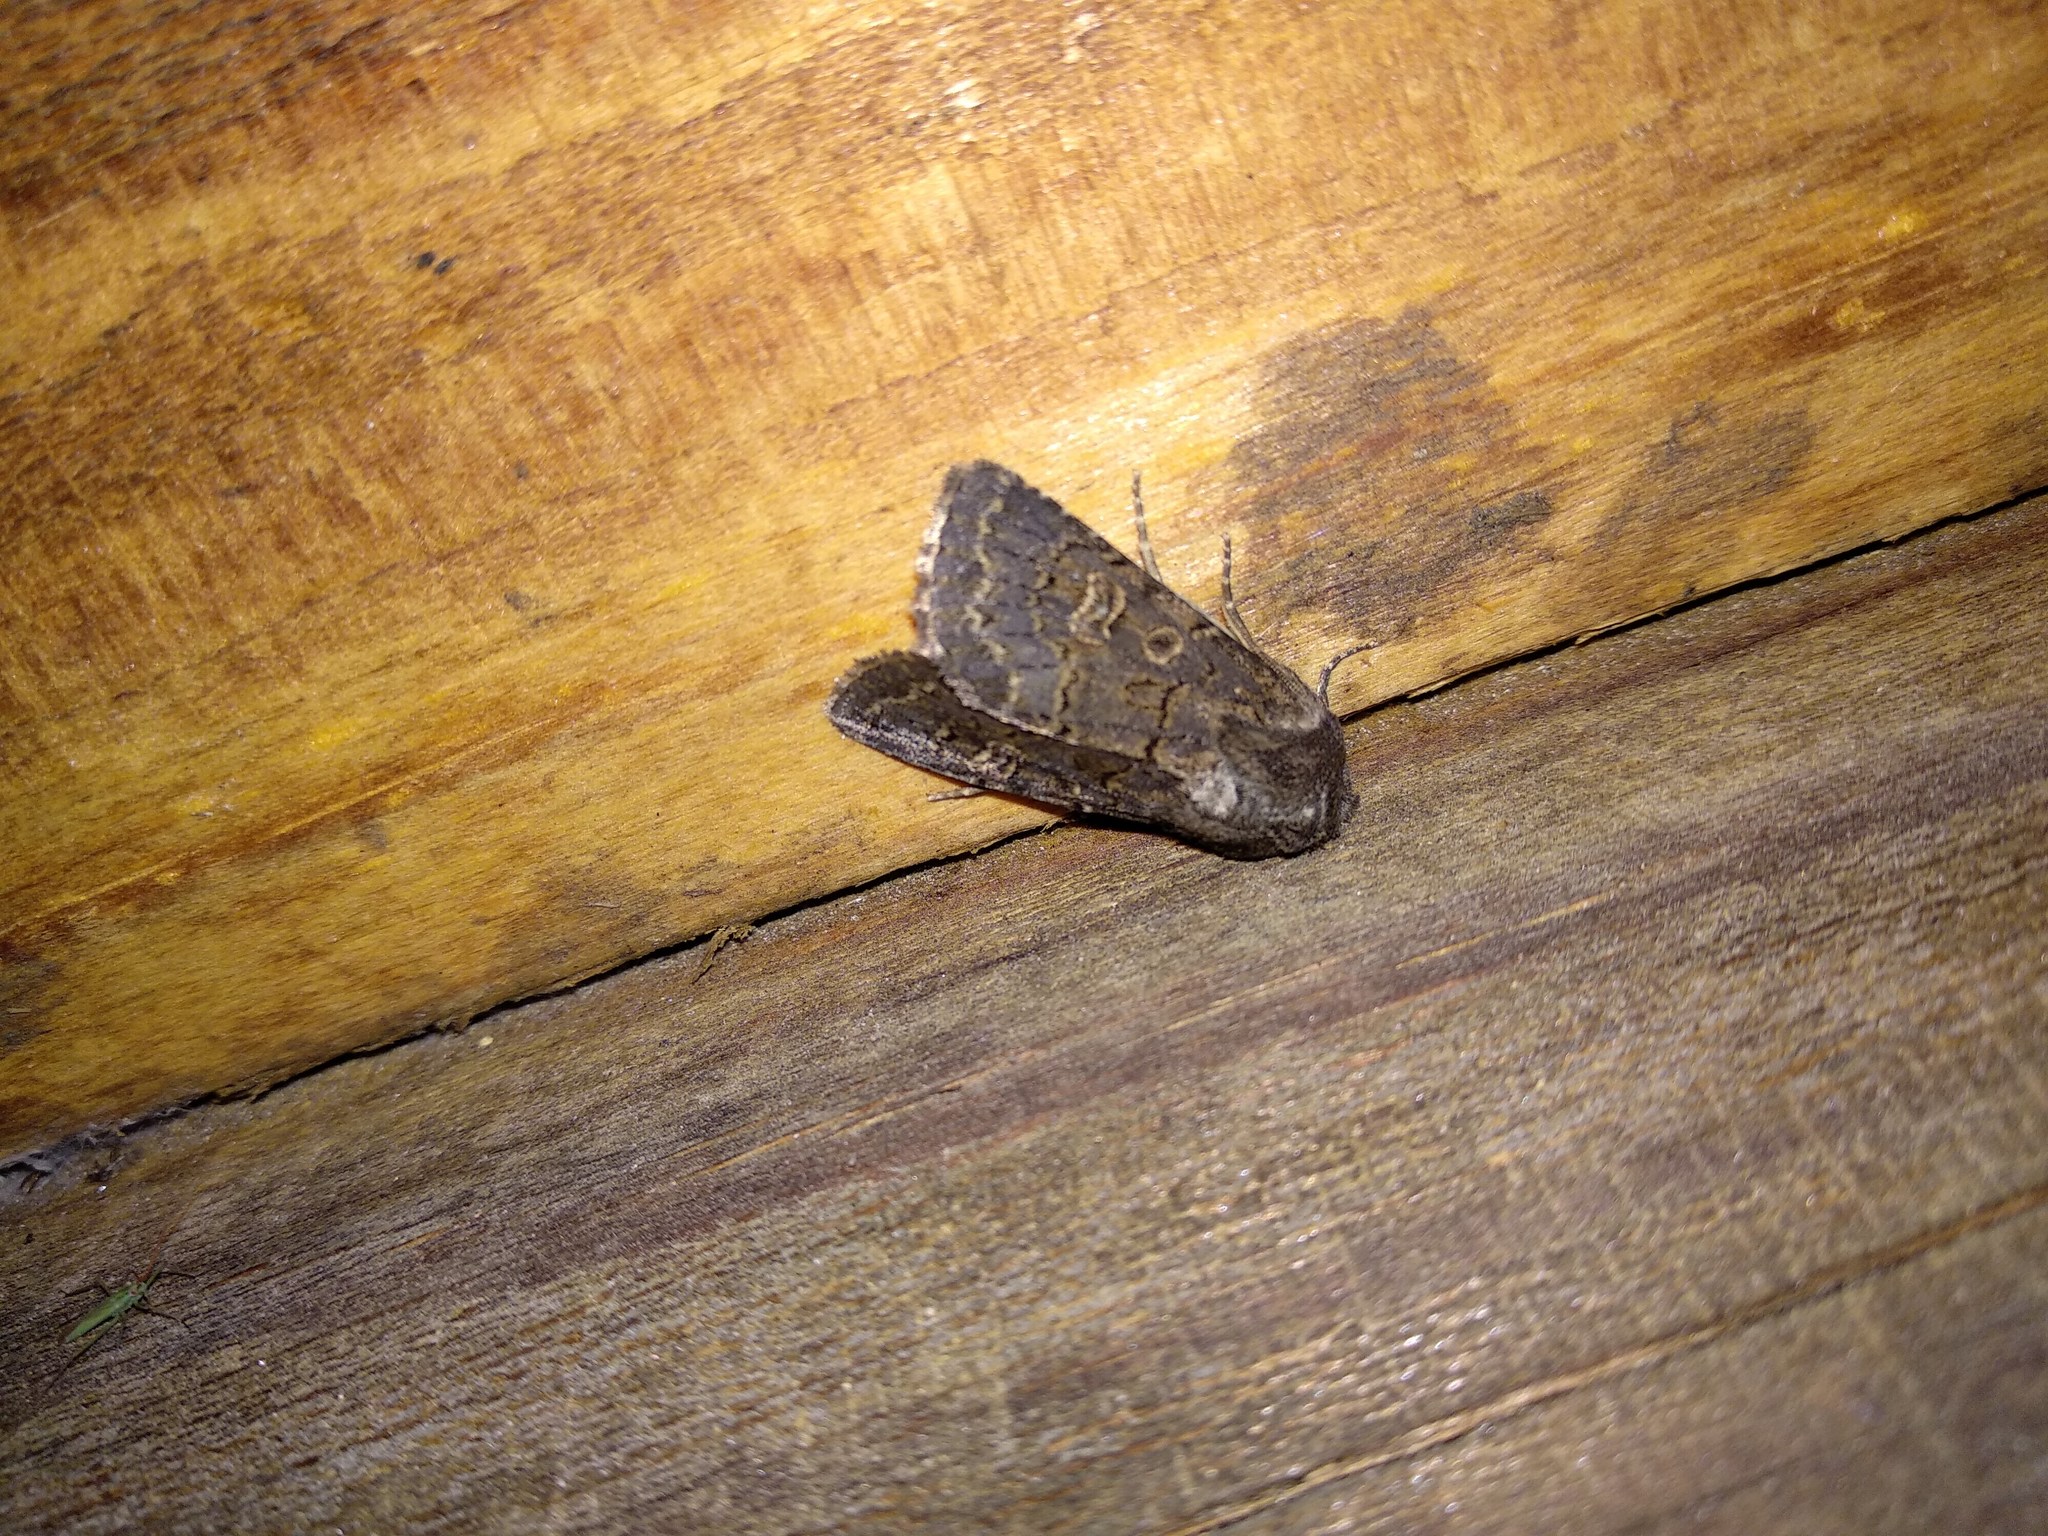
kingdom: Animalia
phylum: Arthropoda
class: Insecta
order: Lepidoptera
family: Noctuidae
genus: Tholera
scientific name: Tholera cespitis
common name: Hedge rustic
